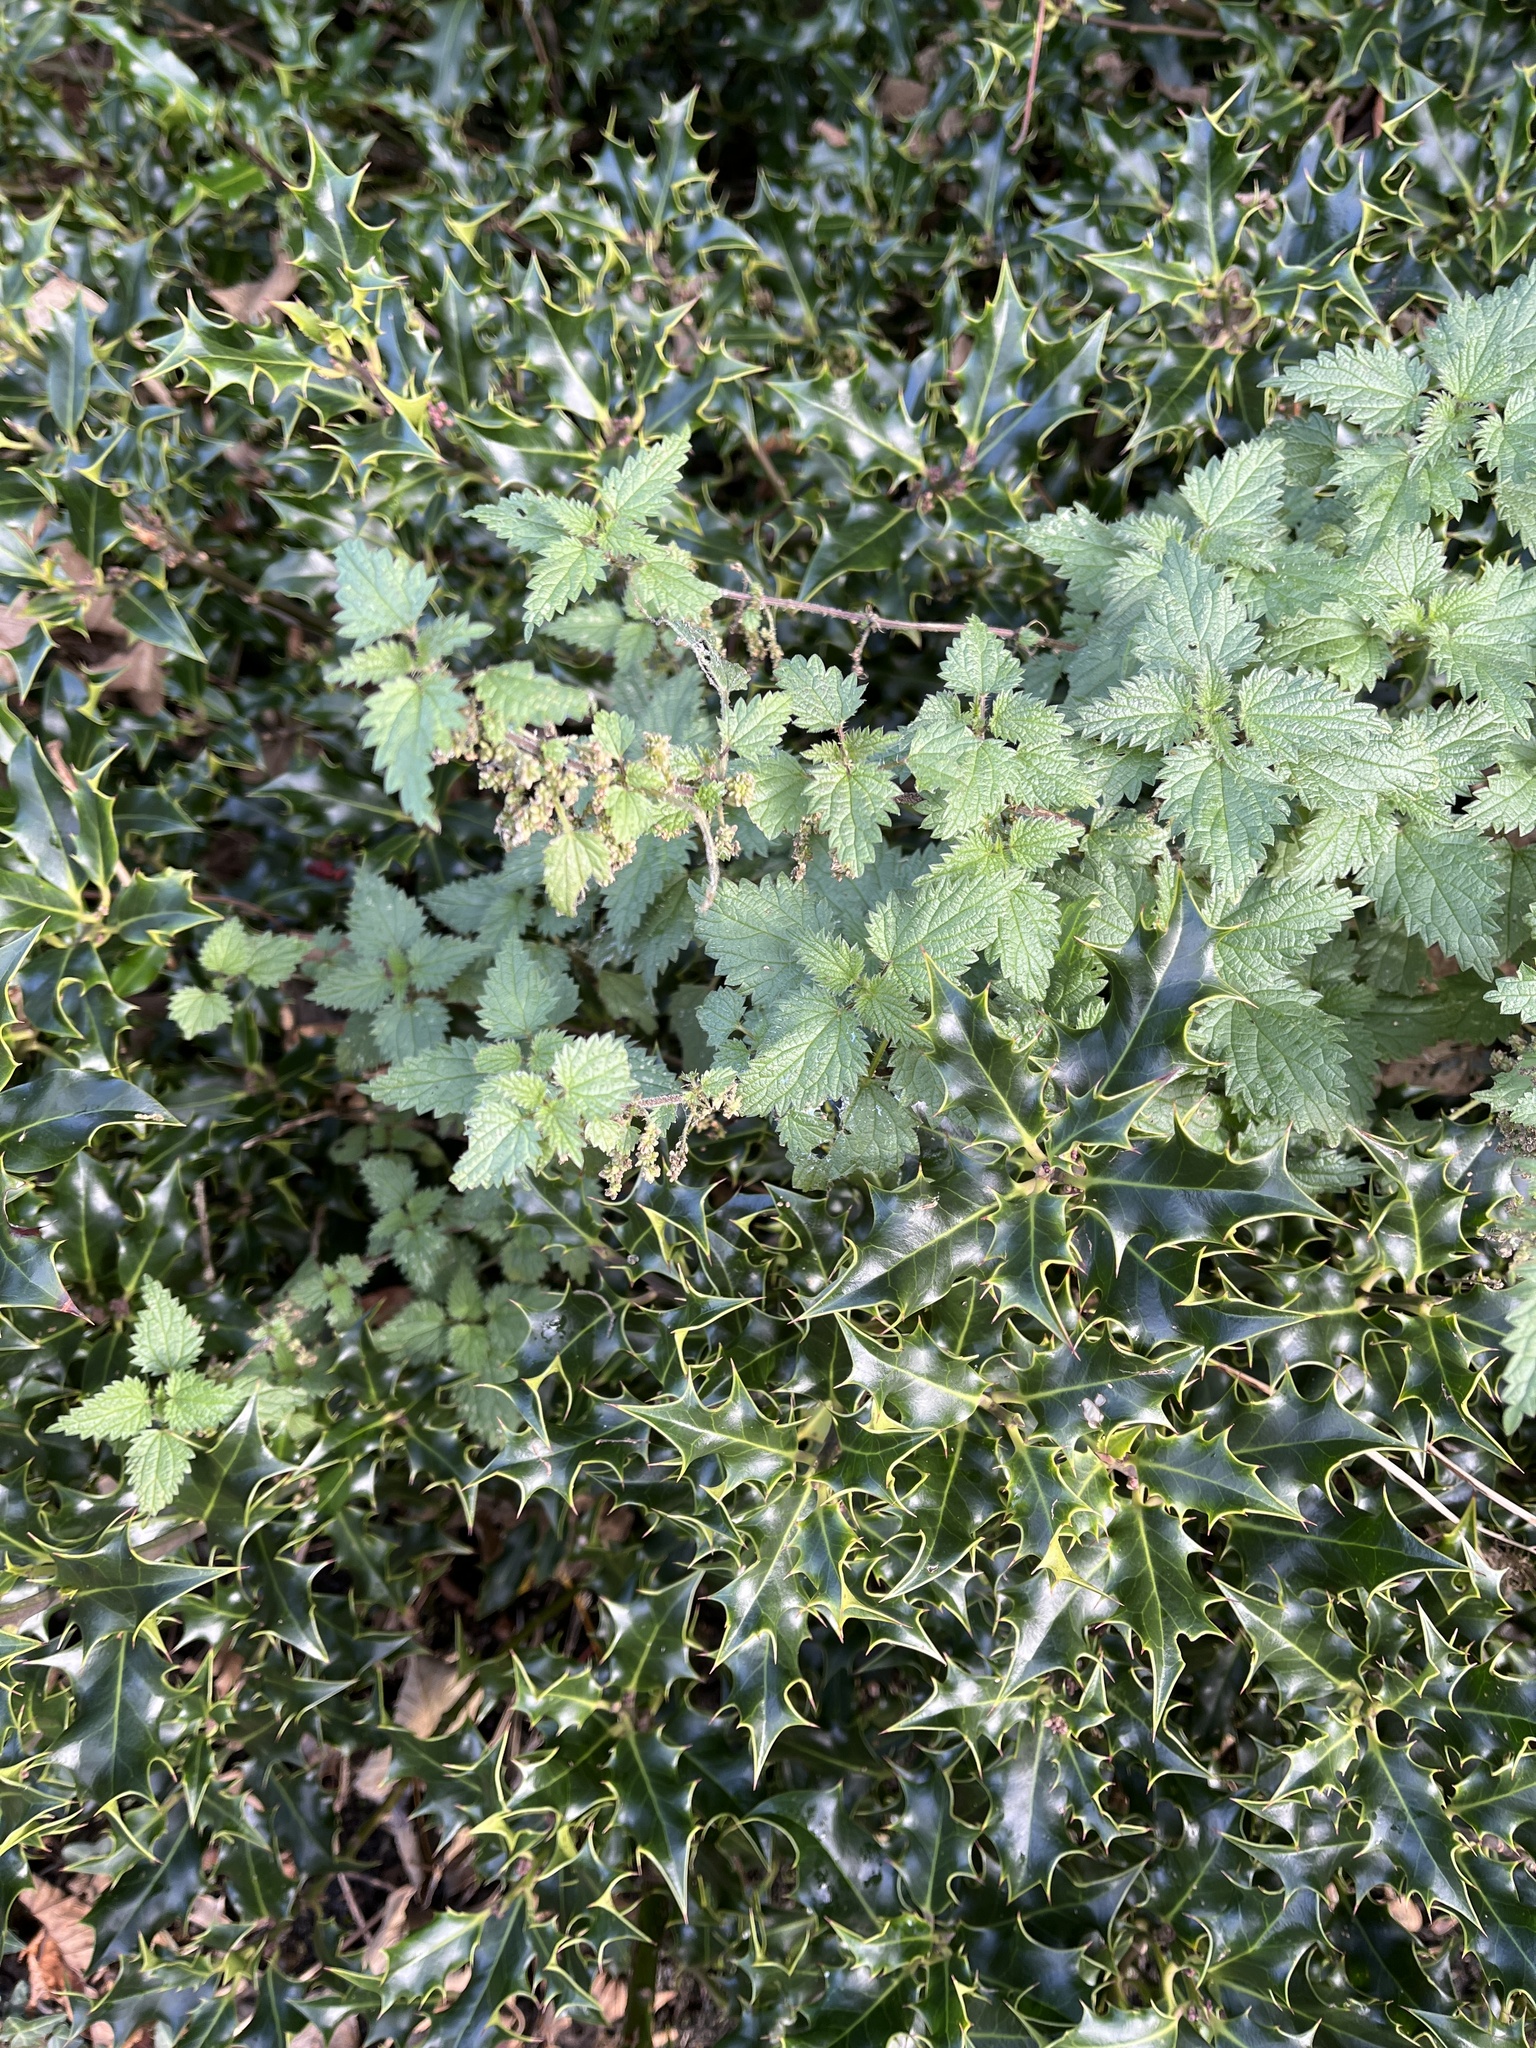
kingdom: Plantae
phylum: Tracheophyta
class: Magnoliopsida
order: Rosales
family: Urticaceae
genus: Urtica
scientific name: Urtica dioica
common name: Common nettle
